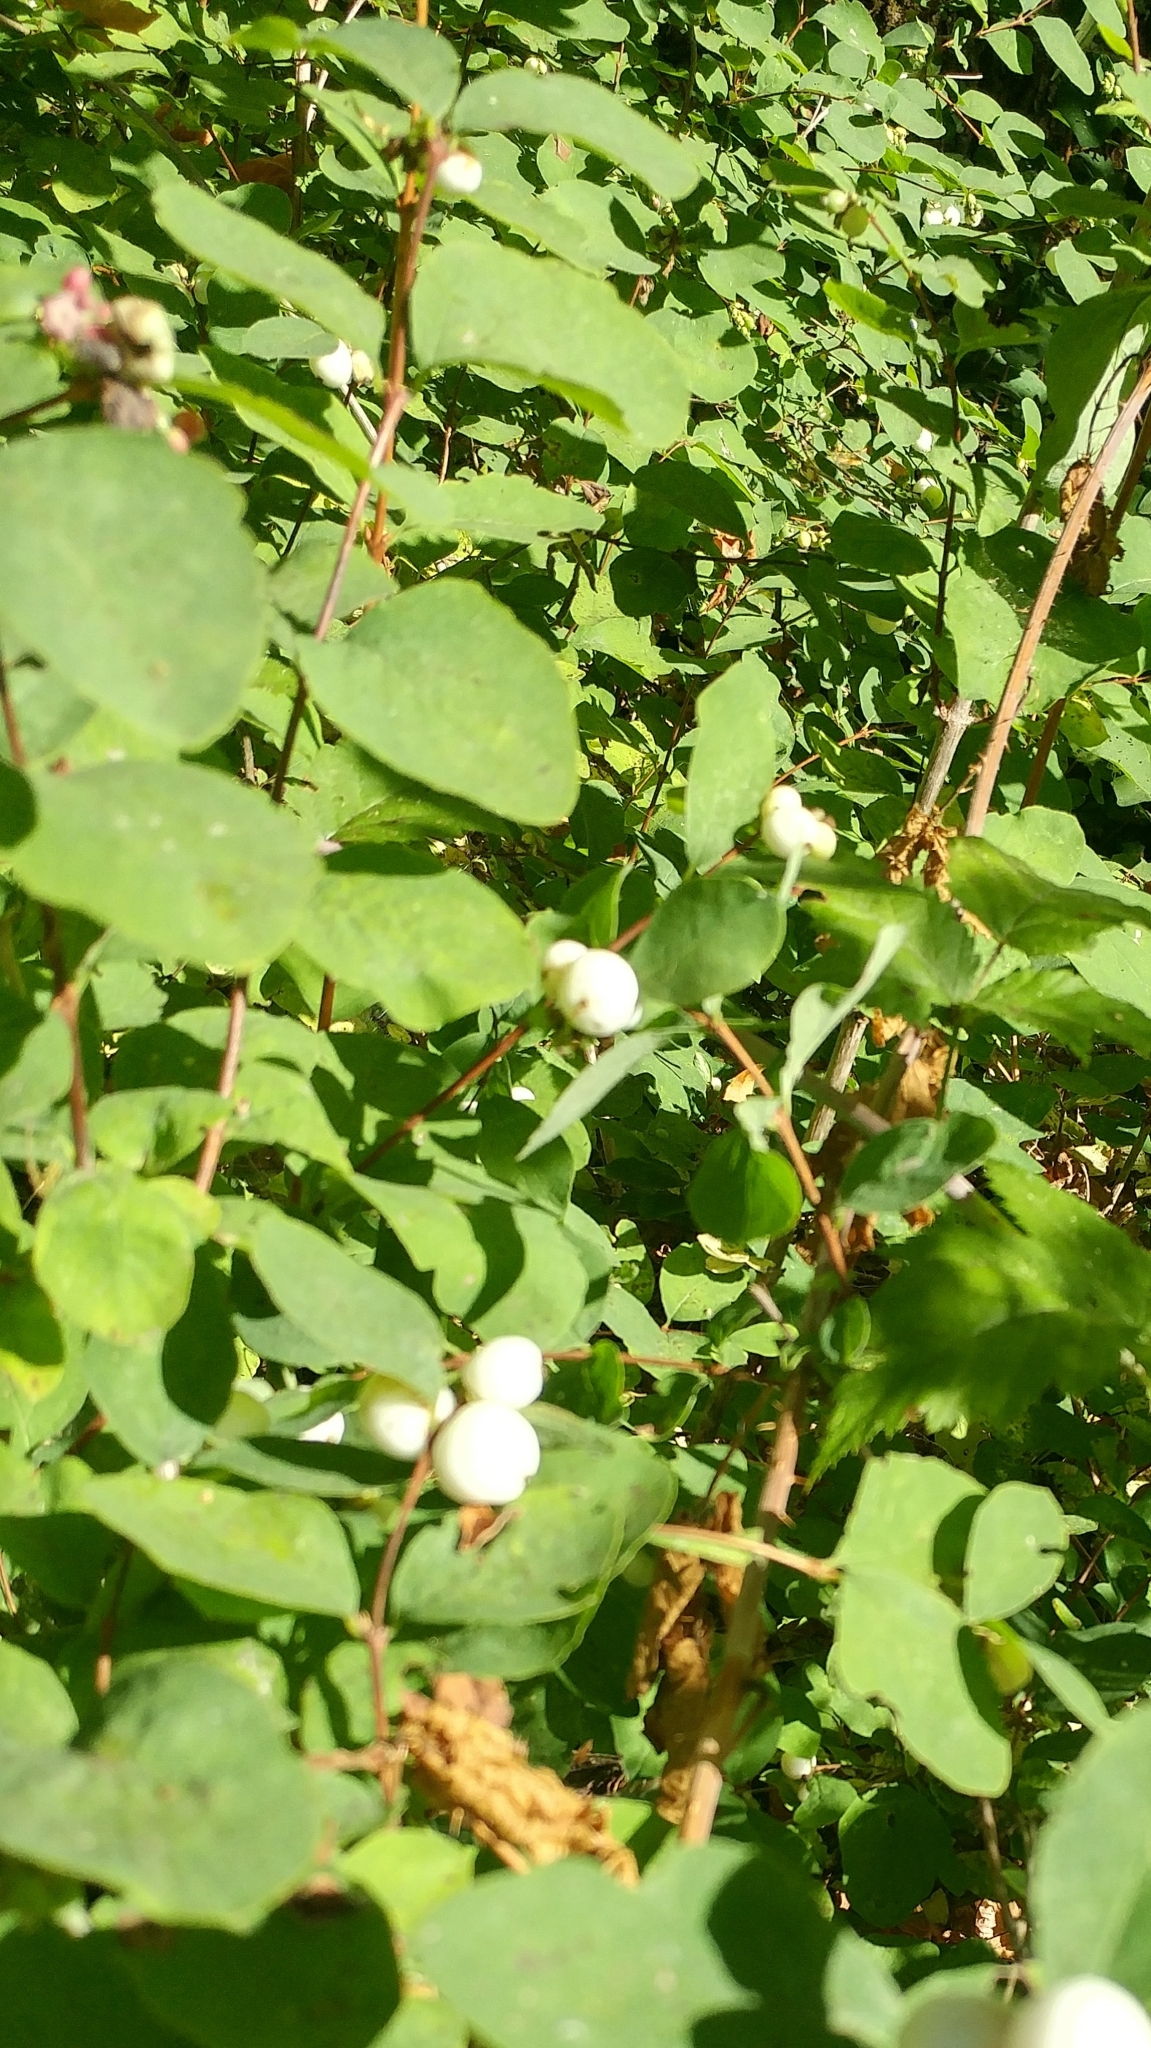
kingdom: Plantae
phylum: Tracheophyta
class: Magnoliopsida
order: Dipsacales
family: Caprifoliaceae
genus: Symphoricarpos
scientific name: Symphoricarpos albus
